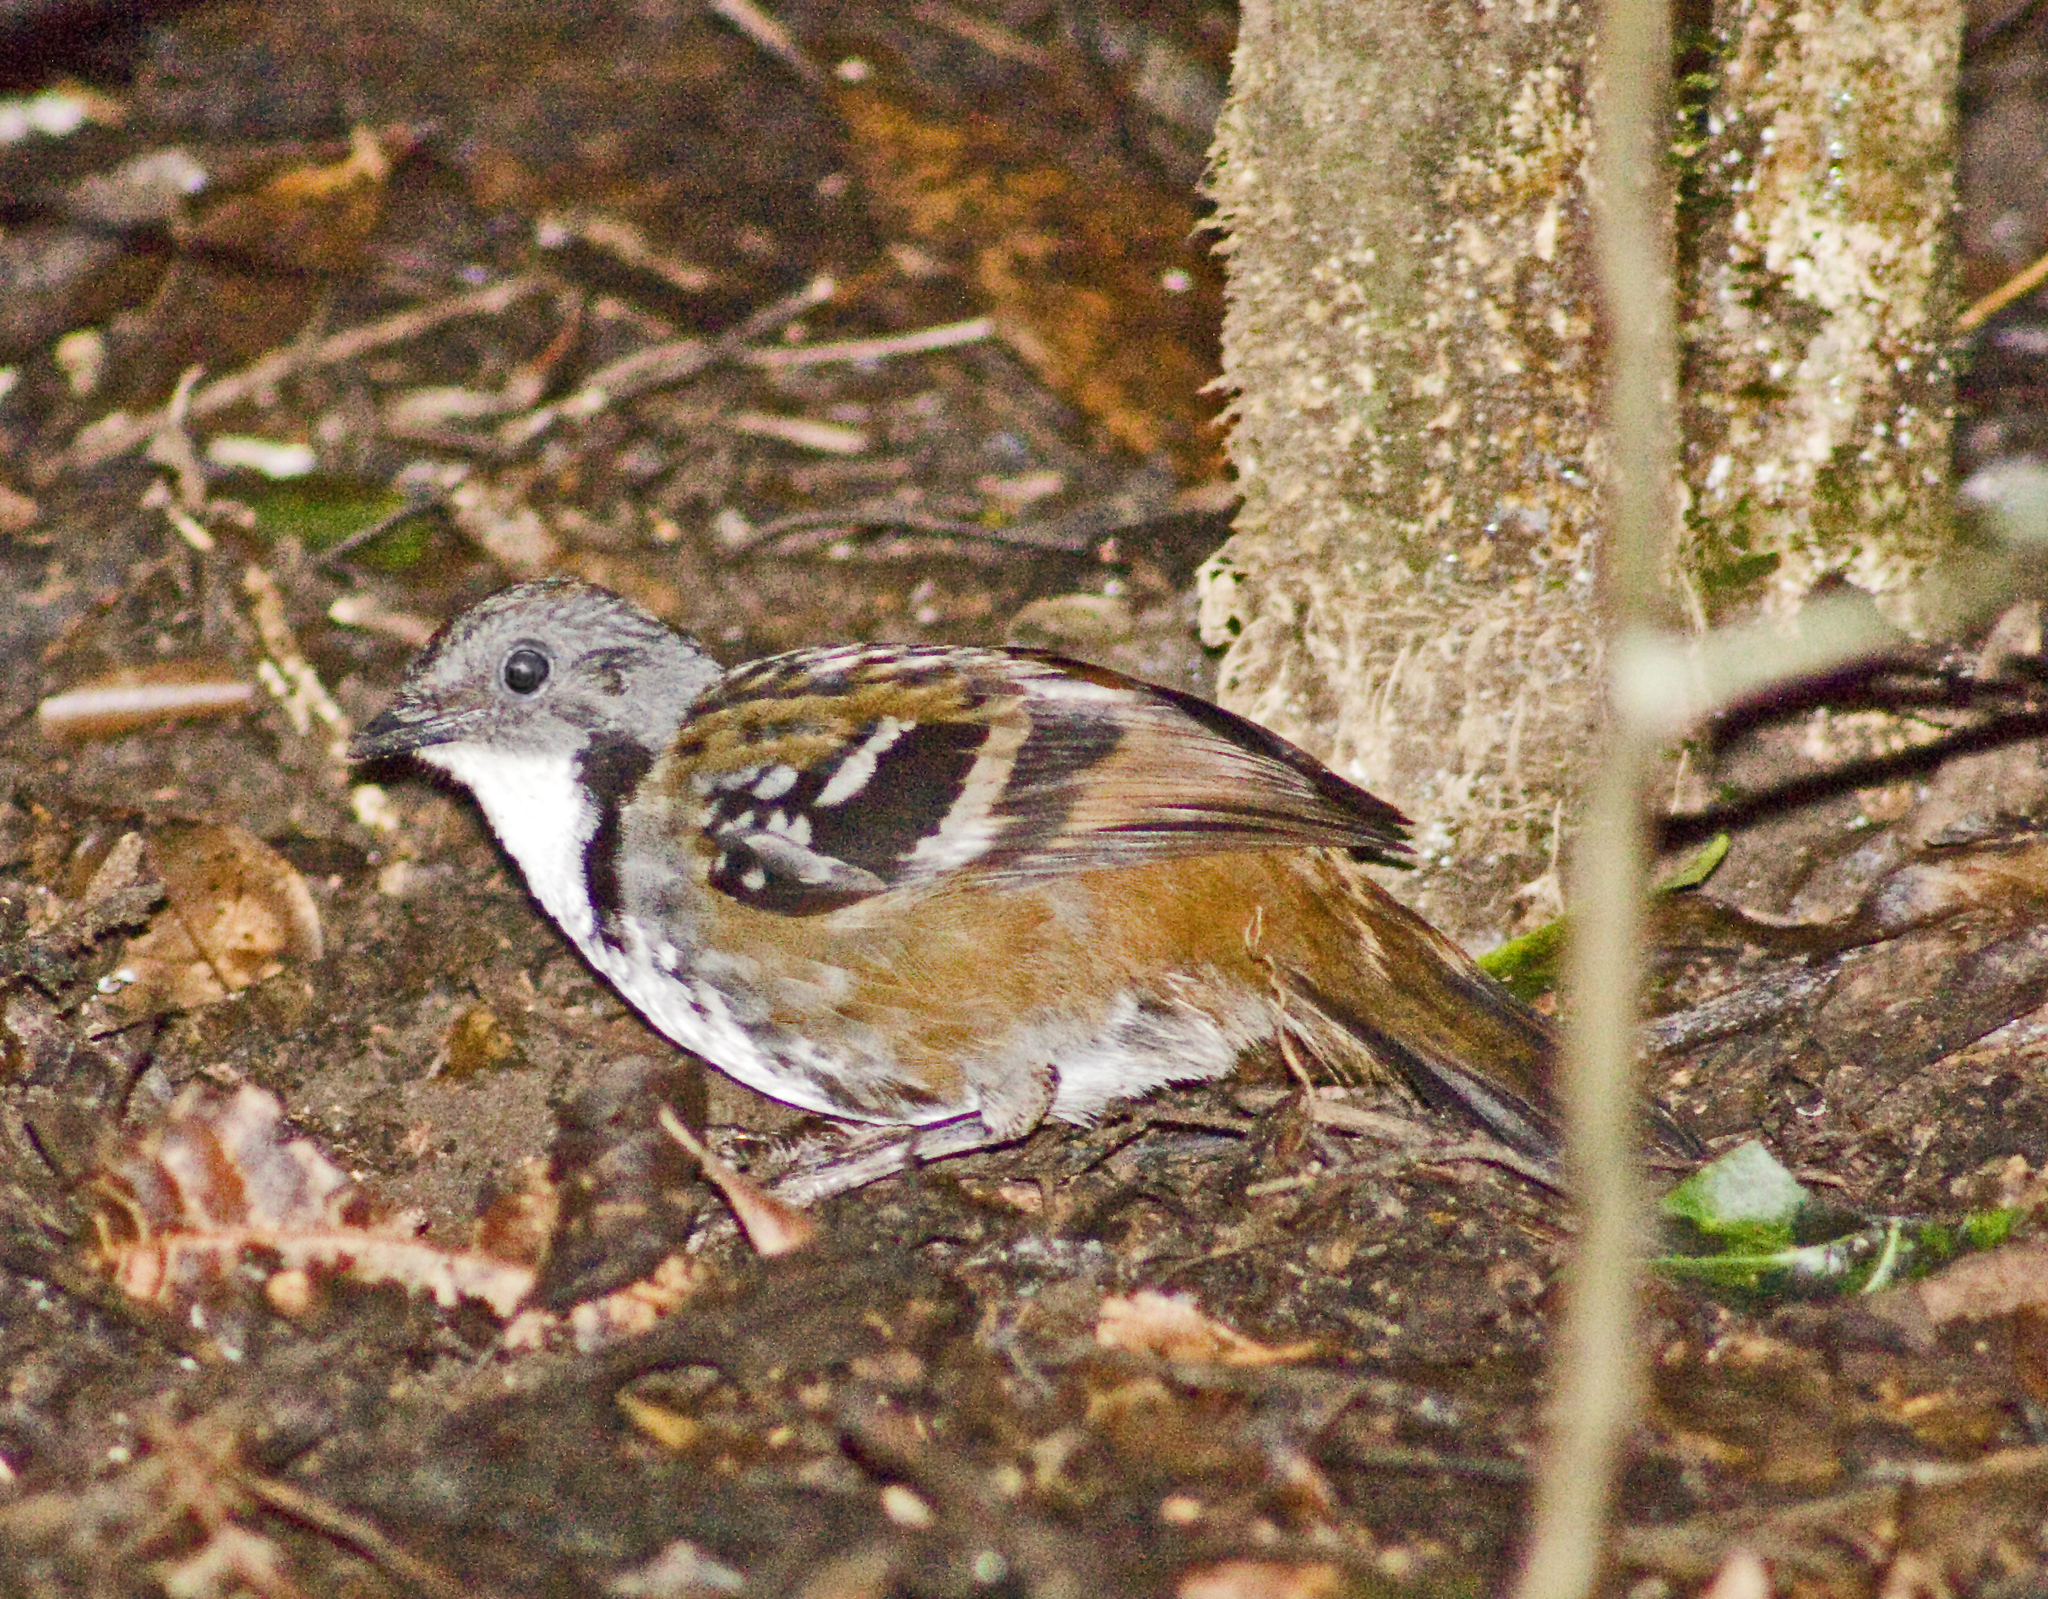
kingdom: Animalia
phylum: Chordata
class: Aves
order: Passeriformes
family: Orthonychidae
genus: Orthonyx
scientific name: Orthonyx temminckii
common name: Australian logrunner
